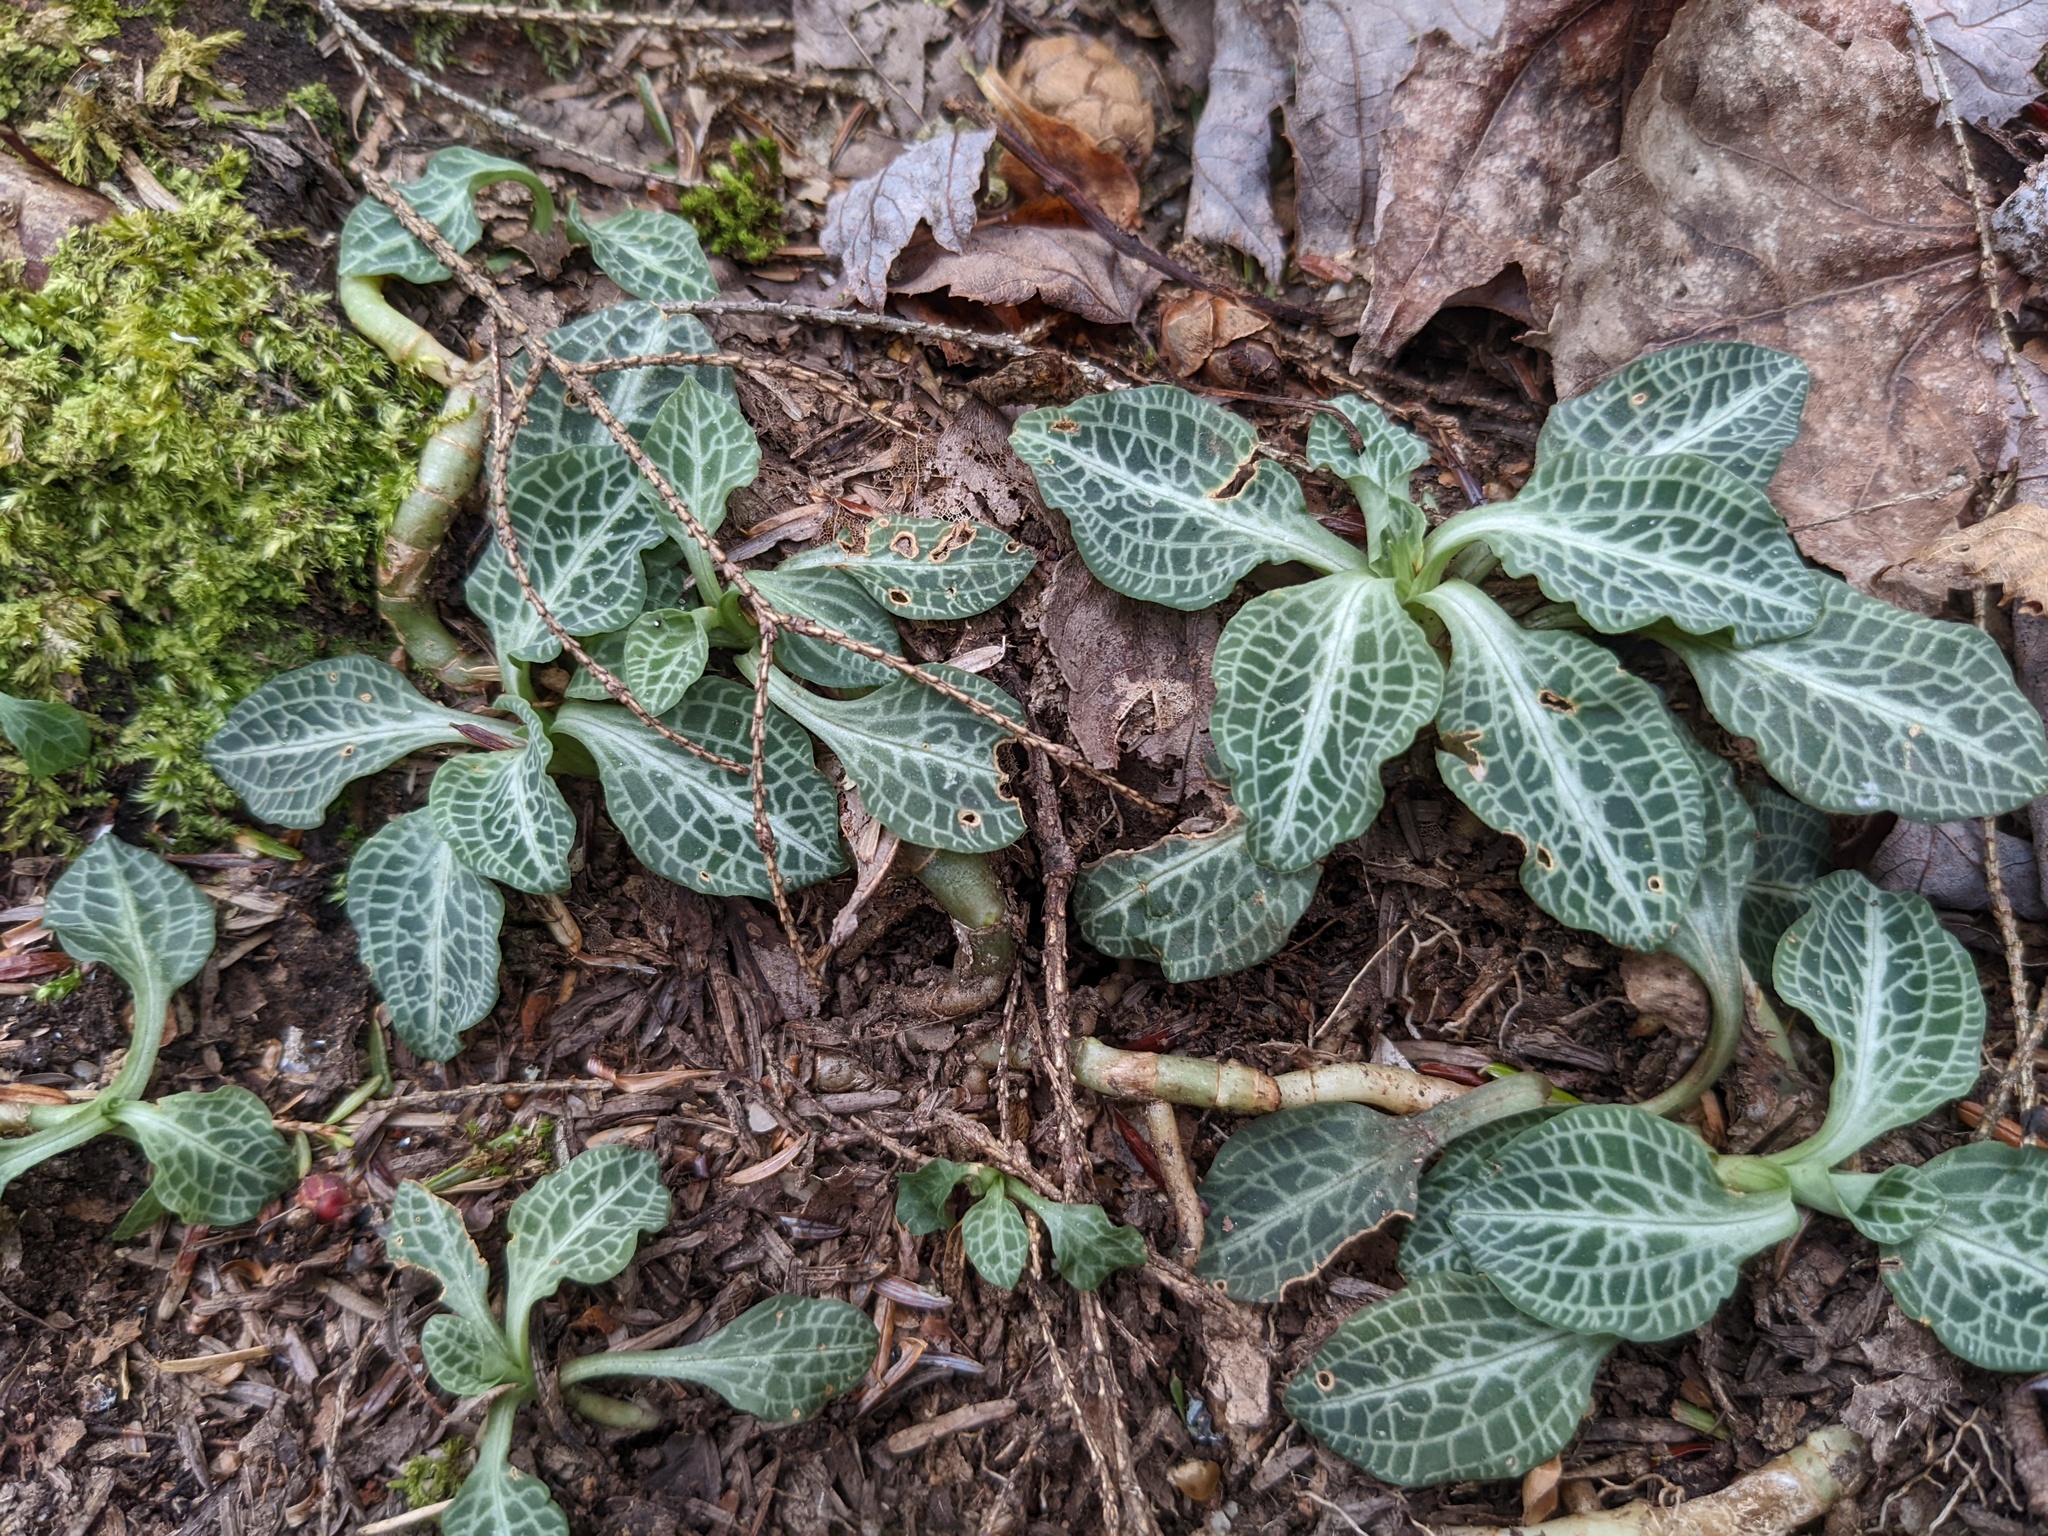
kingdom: Plantae
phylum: Tracheophyta
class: Liliopsida
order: Asparagales
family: Orchidaceae
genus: Goodyera
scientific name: Goodyera pubescens
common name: Downy rattlesnake-plantain
